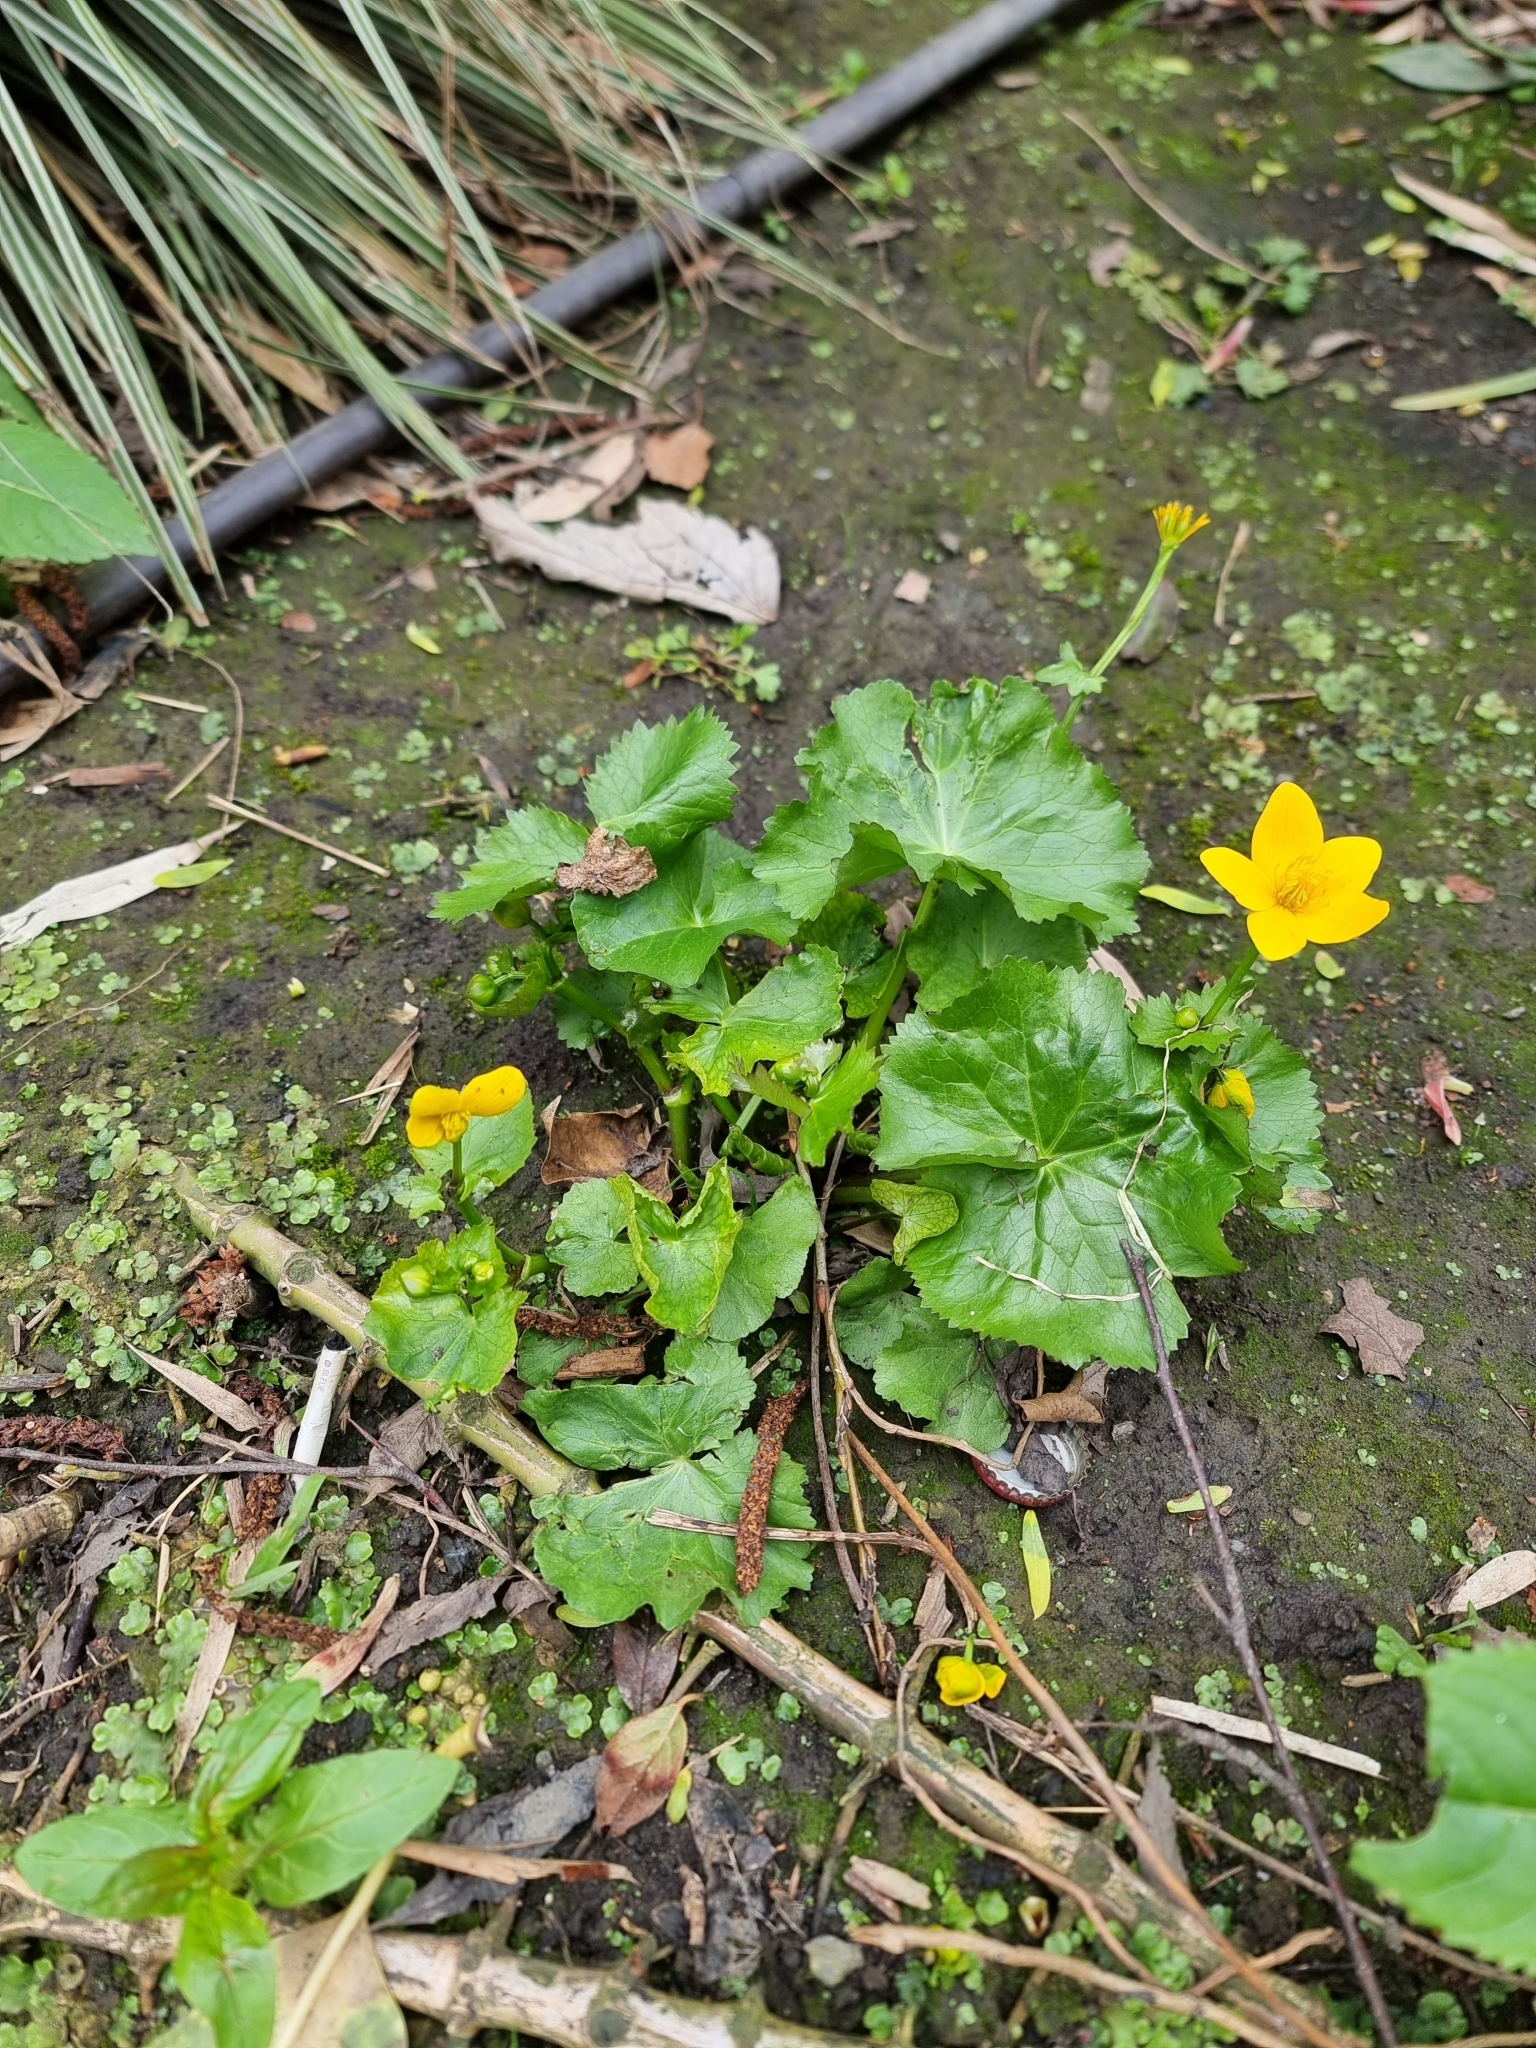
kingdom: Plantae
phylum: Tracheophyta
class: Magnoliopsida
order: Ranunculales
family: Ranunculaceae
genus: Caltha
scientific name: Caltha palustris
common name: Marsh marigold
